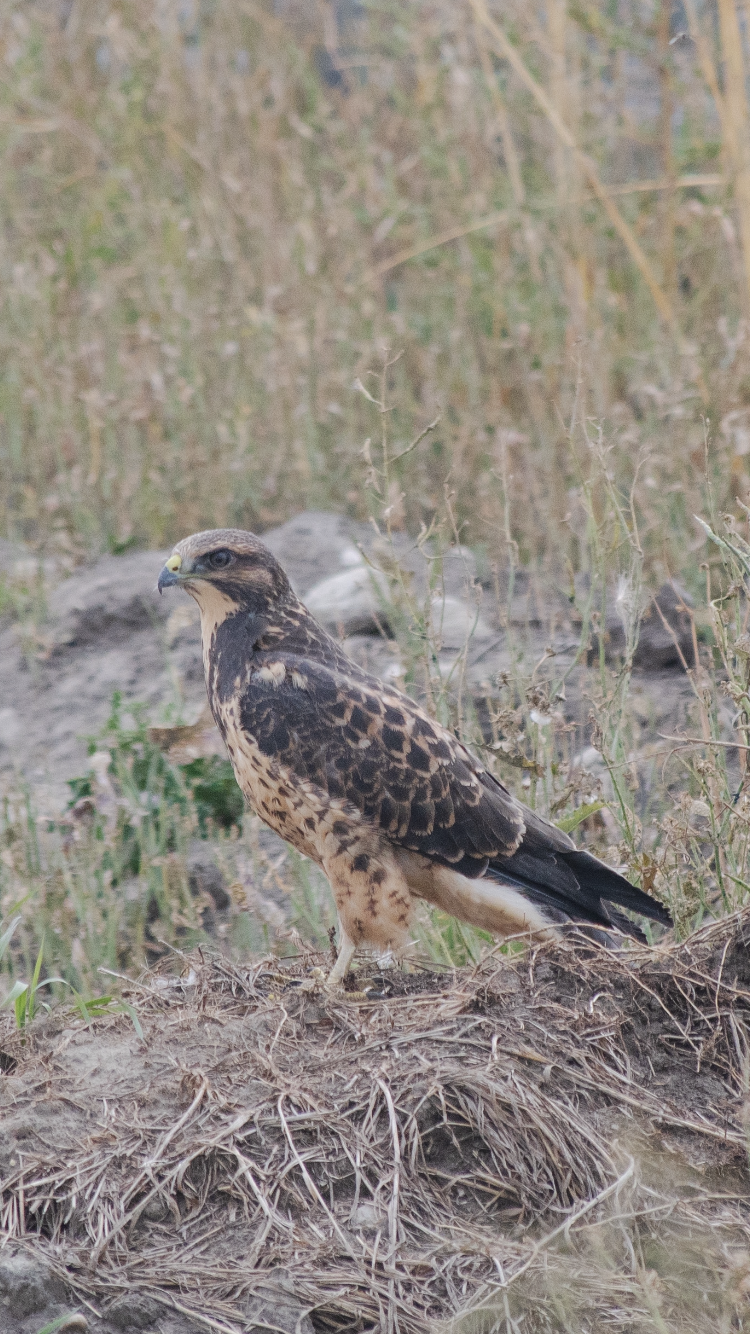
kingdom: Animalia
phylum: Chordata
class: Aves
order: Accipitriformes
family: Accipitridae
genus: Buteo
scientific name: Buteo swainsoni
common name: Swainson's hawk
